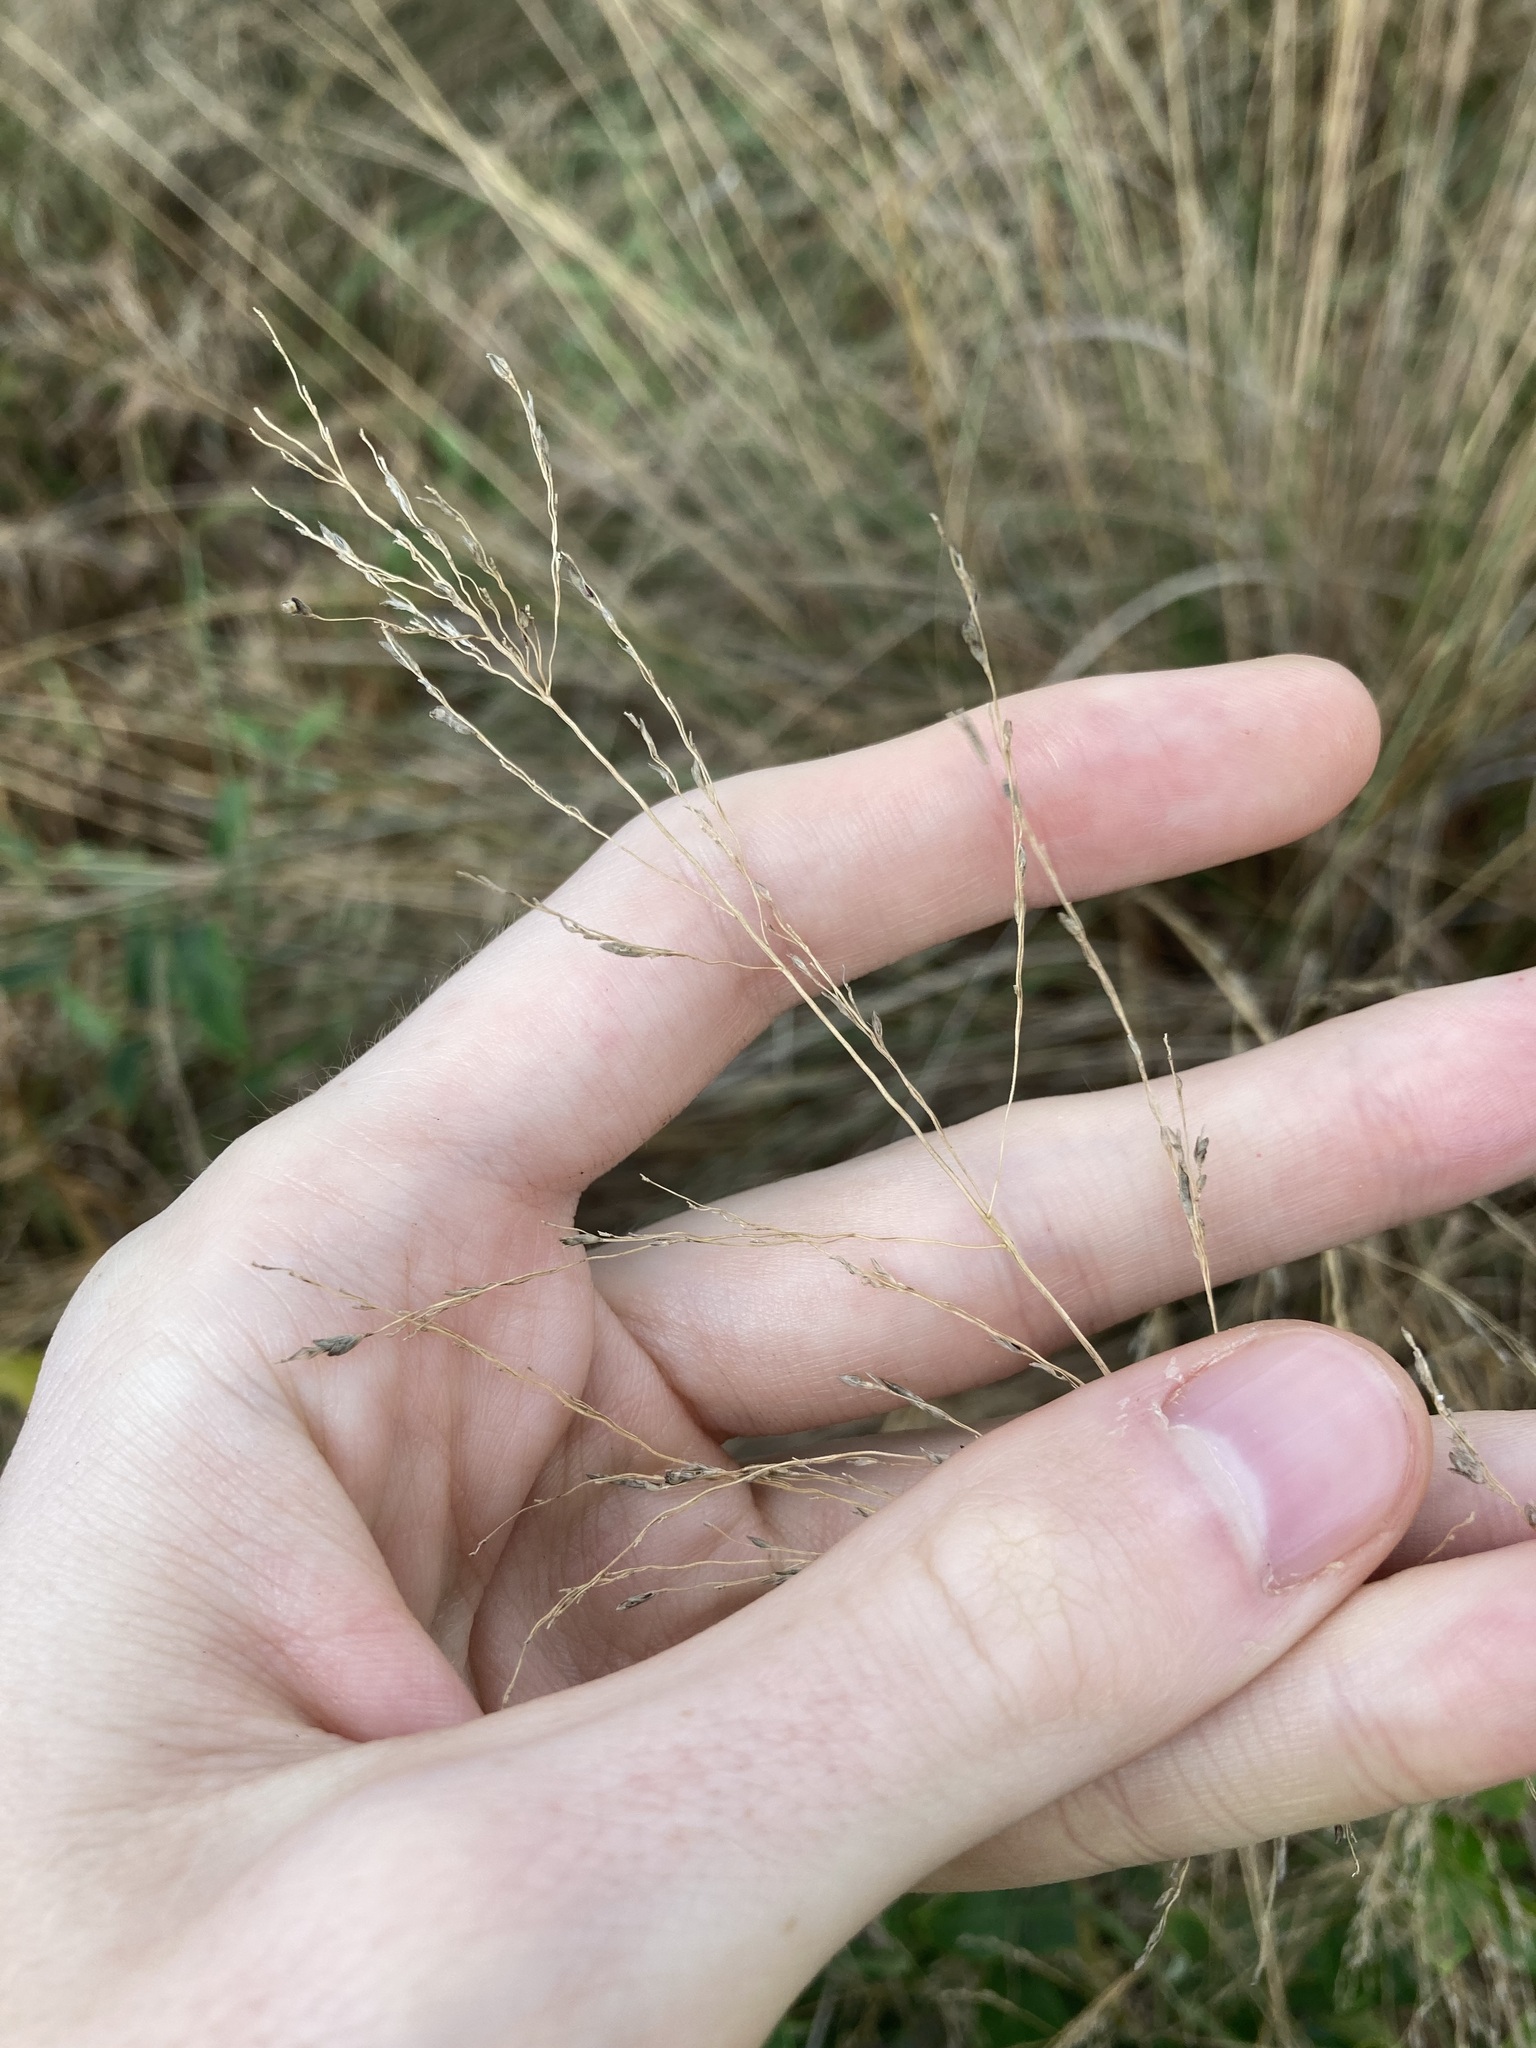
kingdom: Plantae
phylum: Tracheophyta
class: Liliopsida
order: Poales
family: Poaceae
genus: Eragrostis
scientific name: Eragrostis curvula
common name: African love-grass
